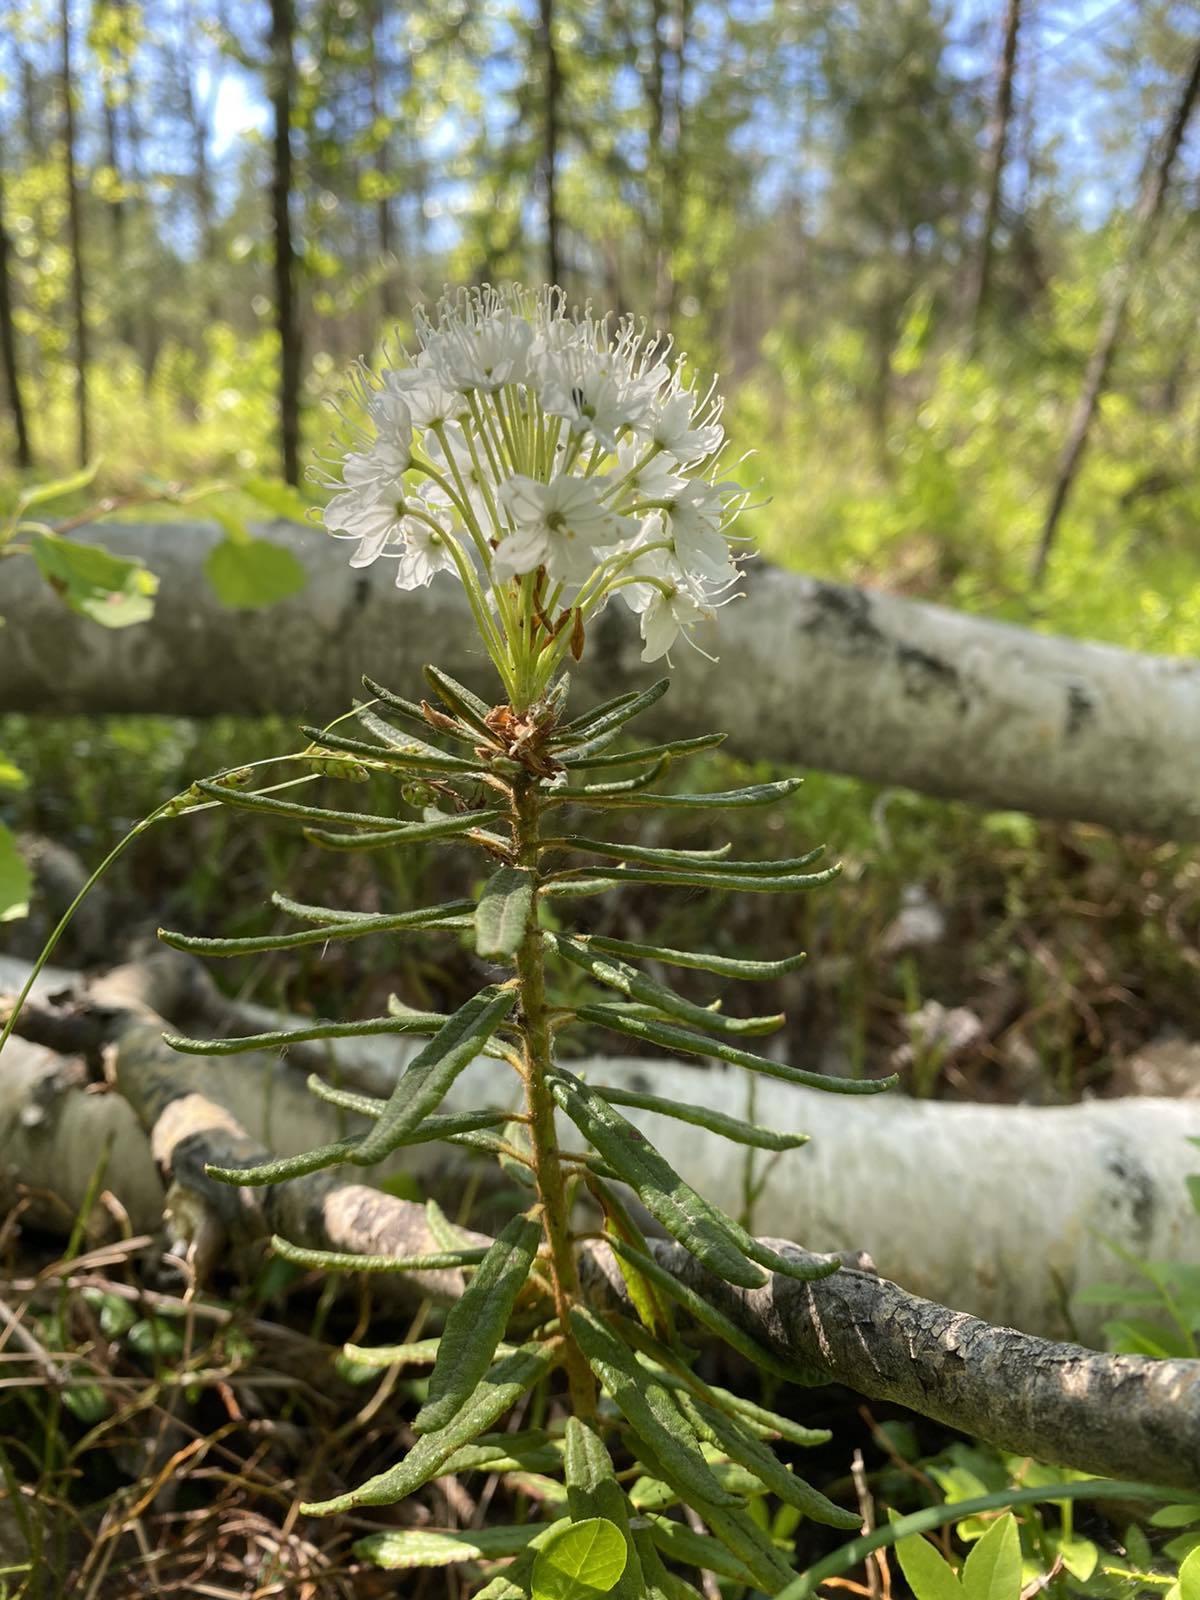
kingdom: Plantae
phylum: Tracheophyta
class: Magnoliopsida
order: Ericales
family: Ericaceae
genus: Rhododendron
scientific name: Rhododendron tomentosum
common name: Marsh labrador tea
